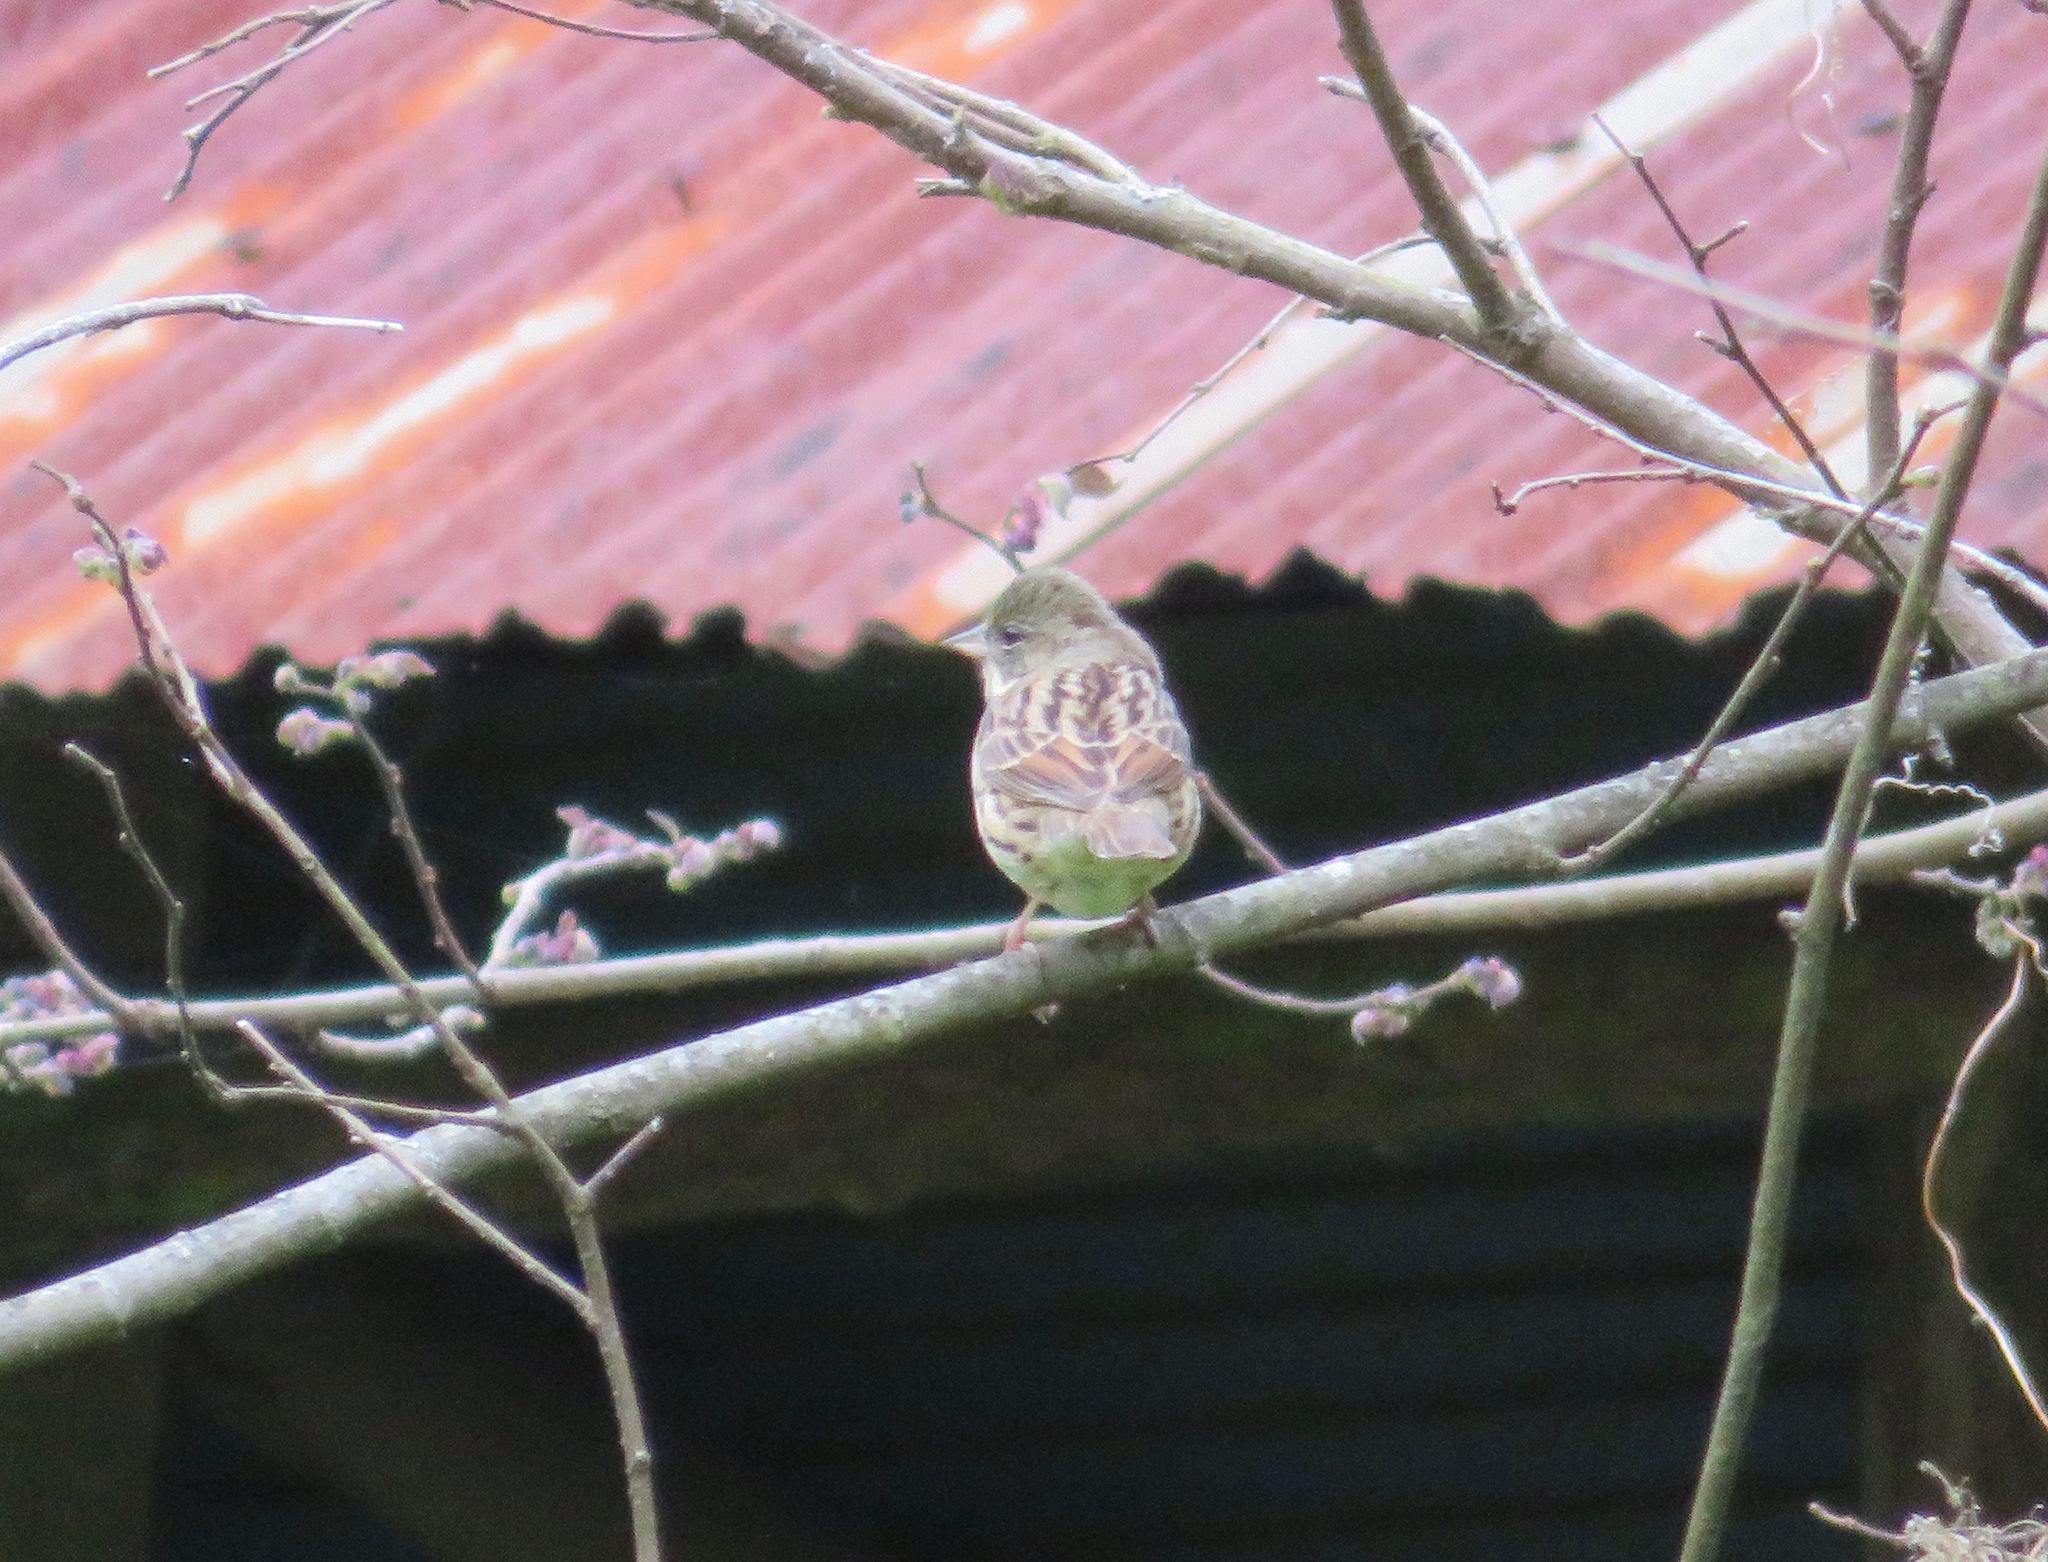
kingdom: Animalia
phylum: Chordata
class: Aves
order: Passeriformes
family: Emberizidae
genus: Emberiza
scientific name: Emberiza personata
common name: Masked bunting
